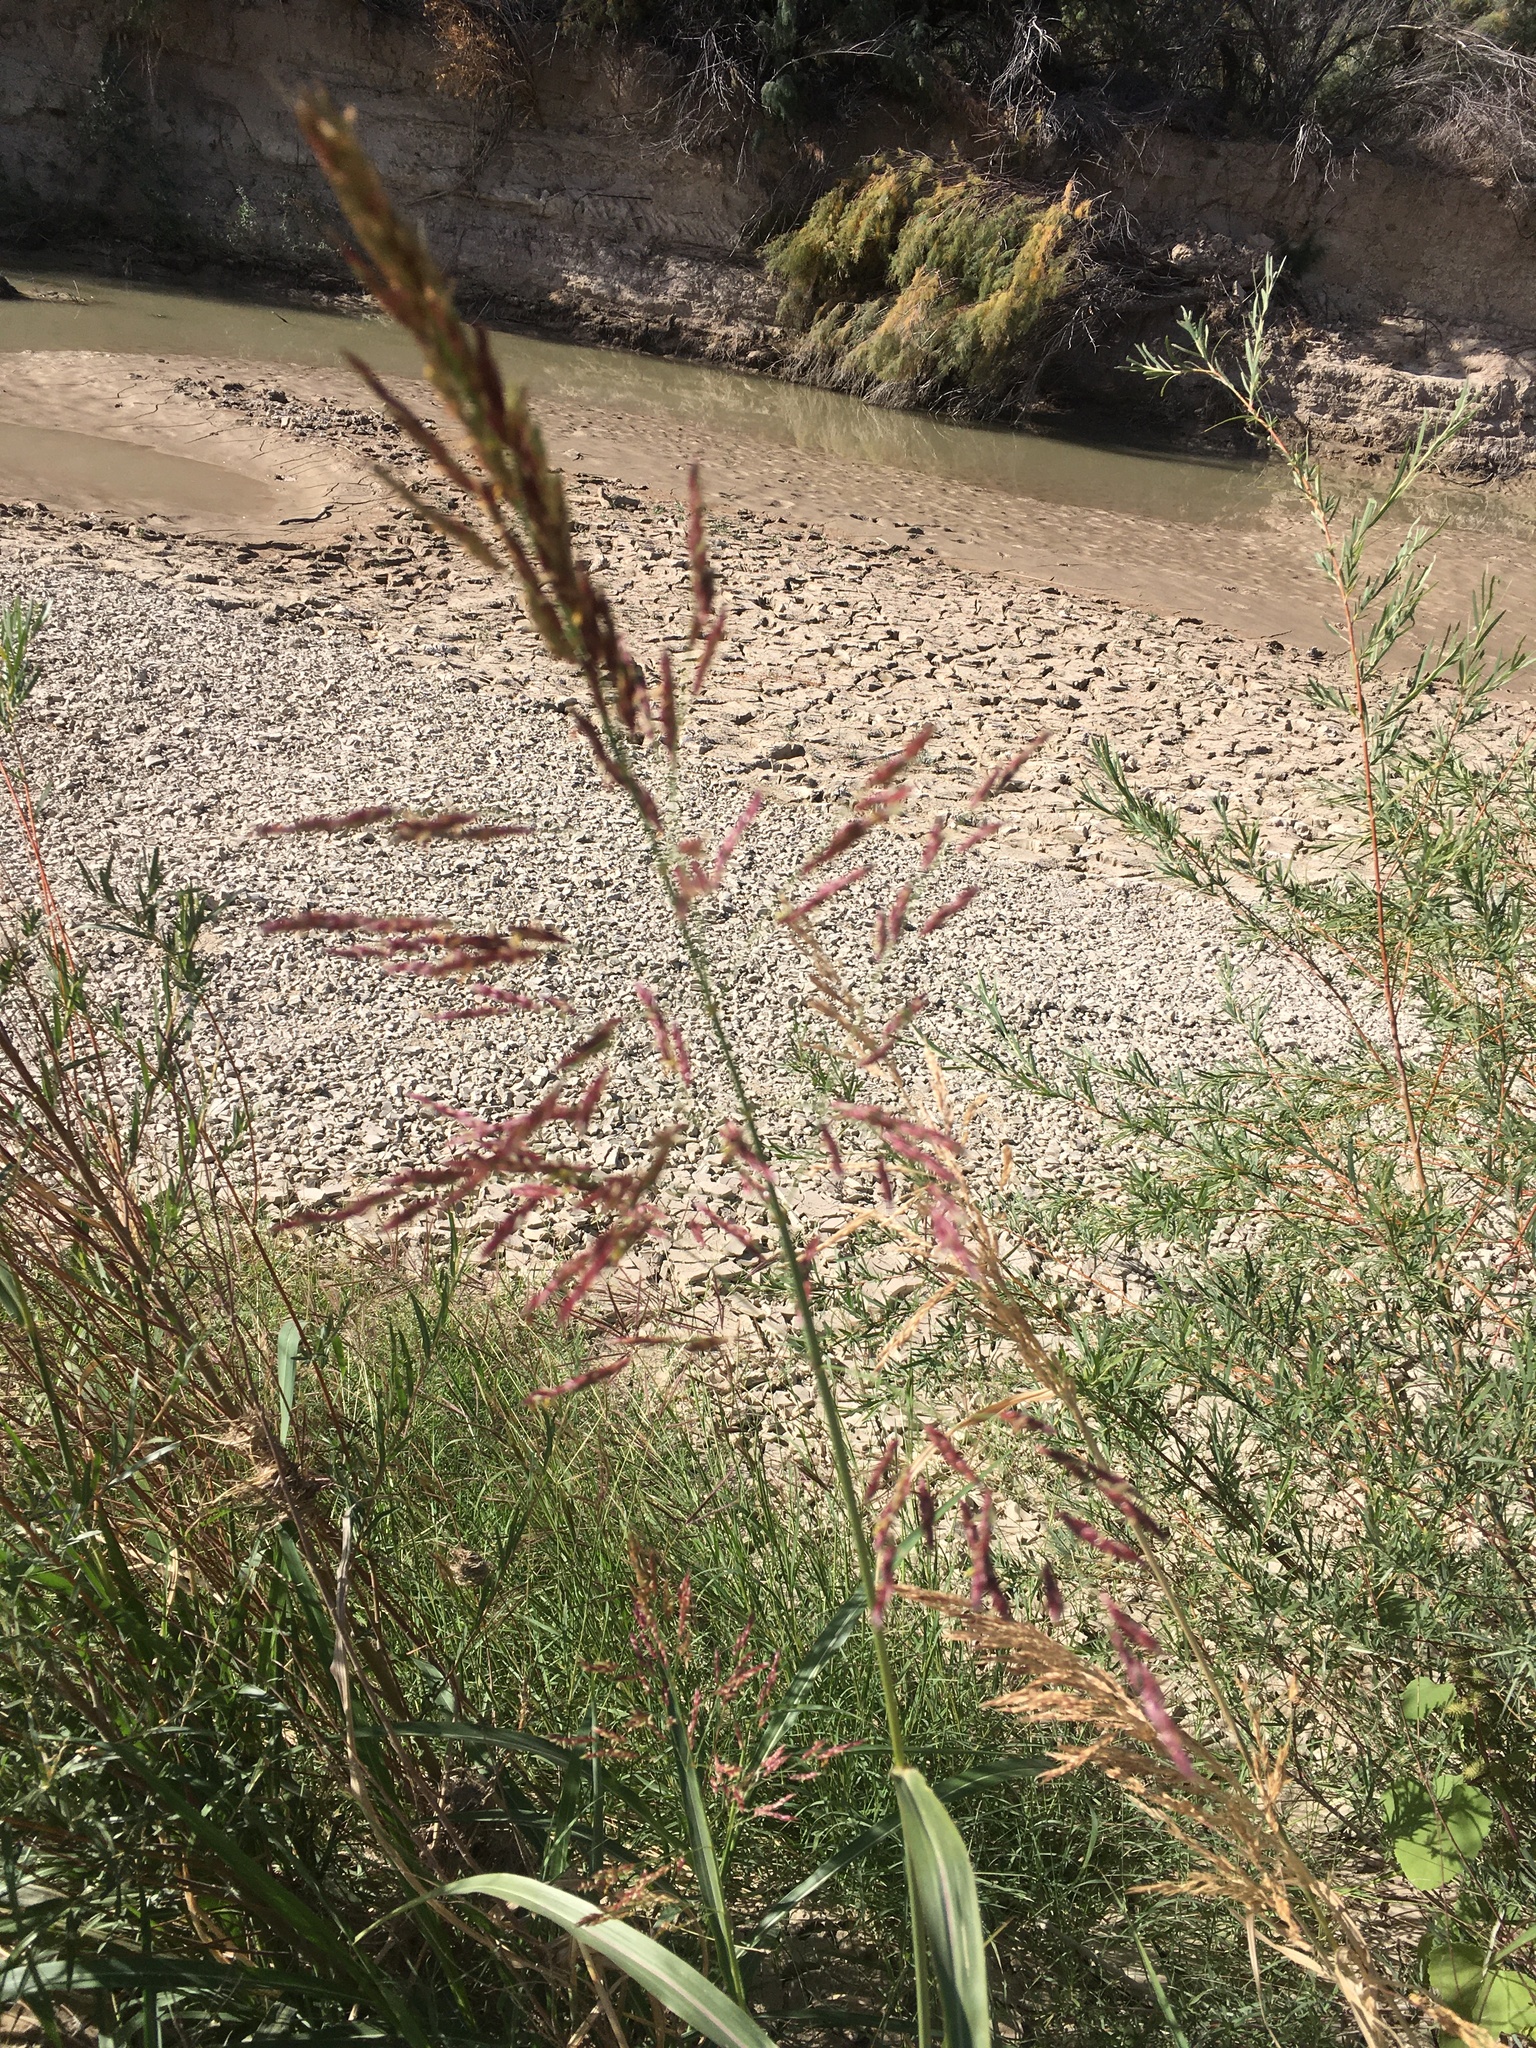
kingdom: Plantae
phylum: Tracheophyta
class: Liliopsida
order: Poales
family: Poaceae
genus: Sorghum
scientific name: Sorghum halepense
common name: Johnson-grass
